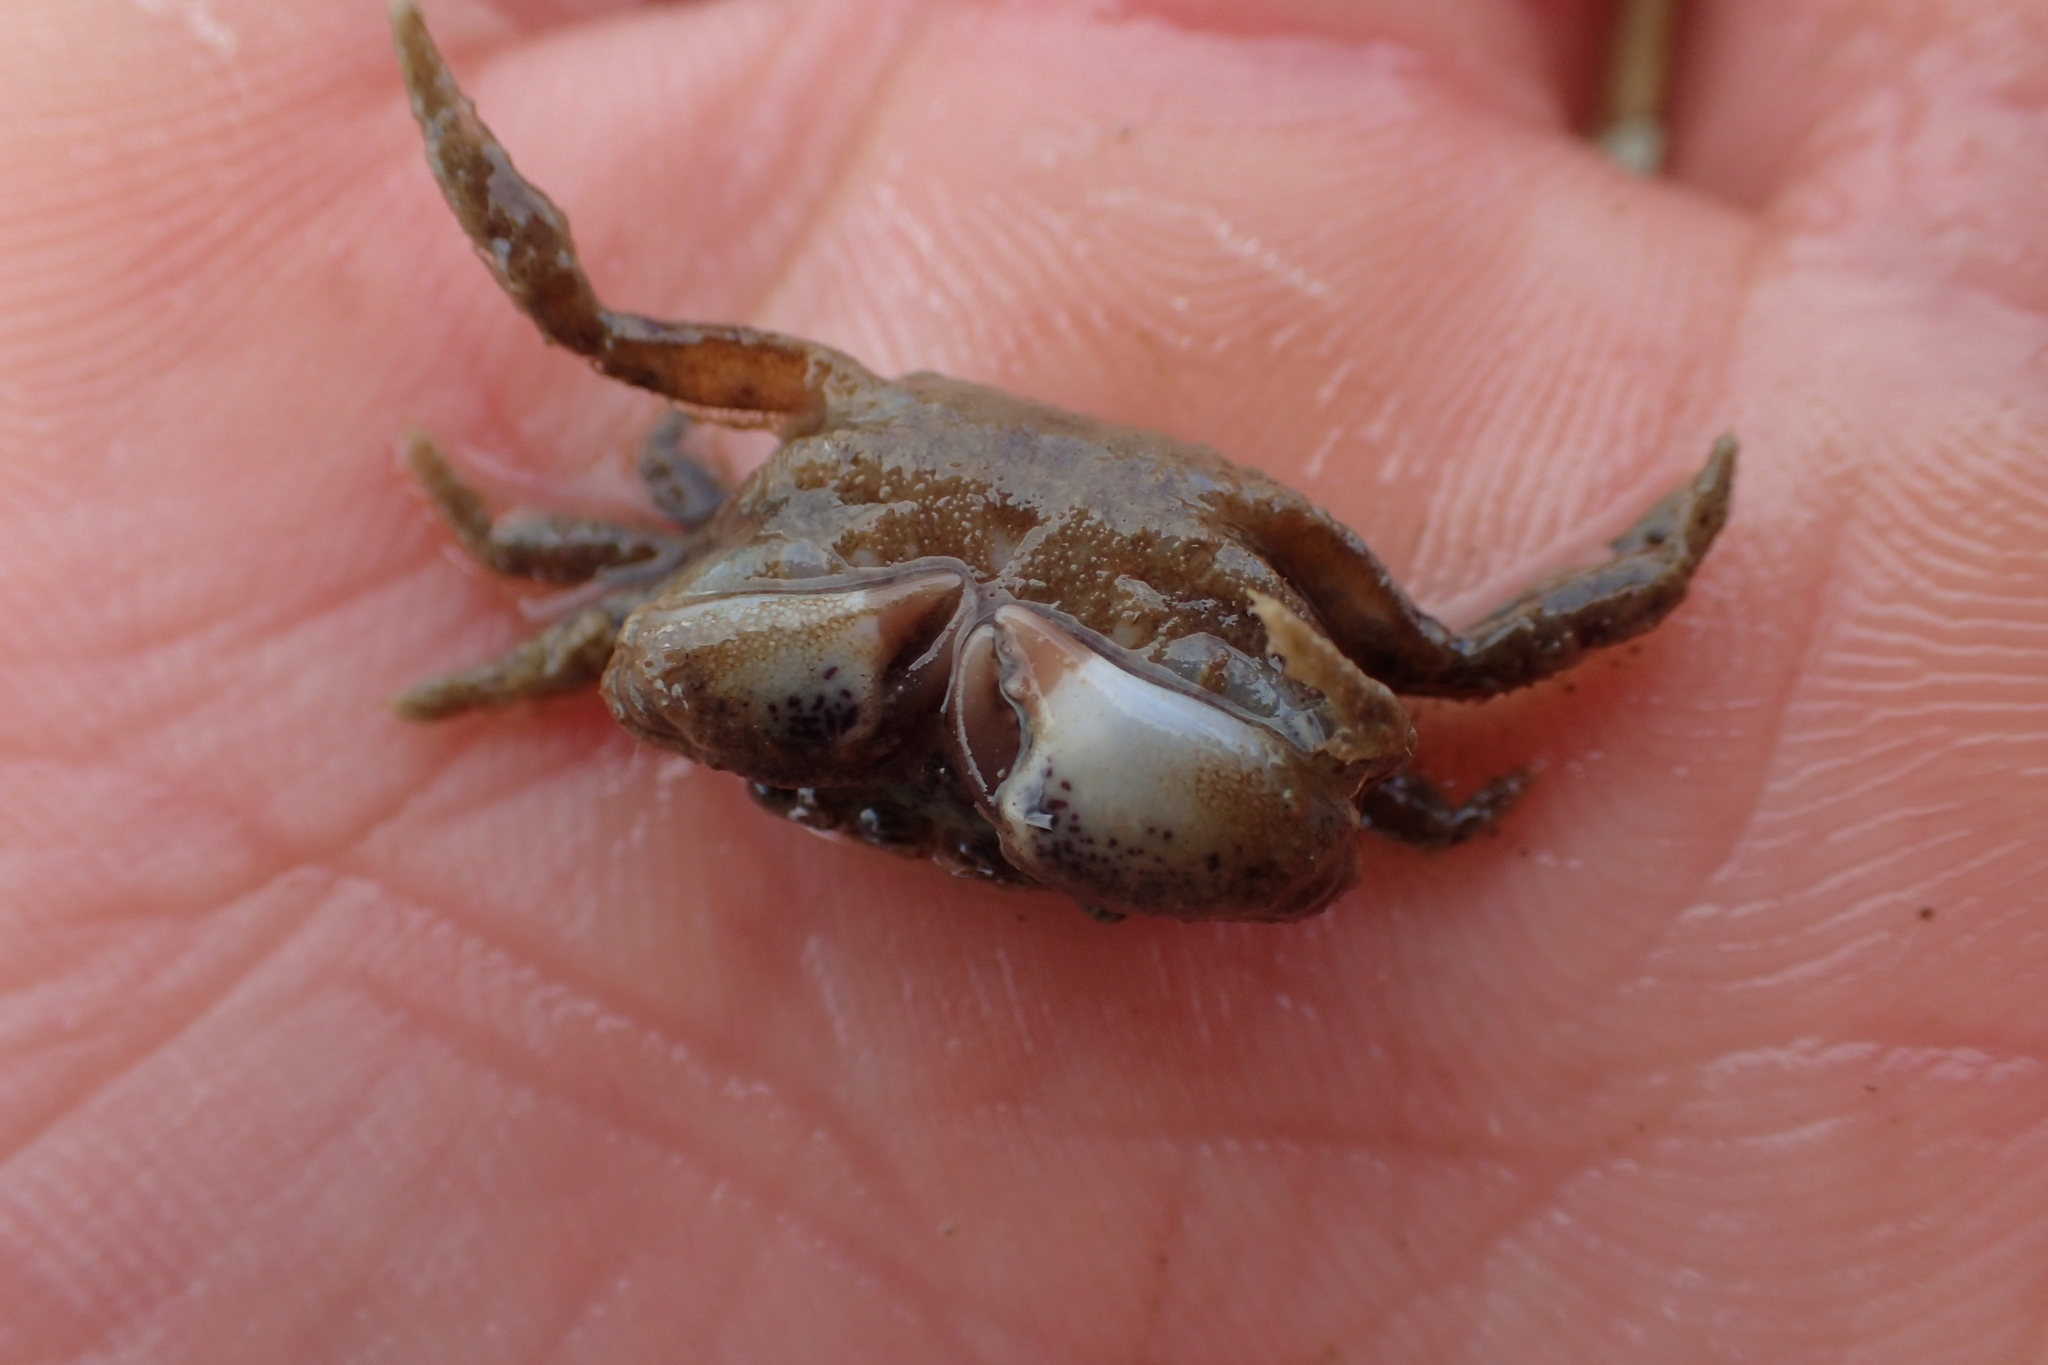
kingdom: Animalia
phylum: Arthropoda
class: Malacostraca
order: Decapoda
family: Pilumnidae
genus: Pilumnopeus
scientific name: Pilumnopeus serratifrons
